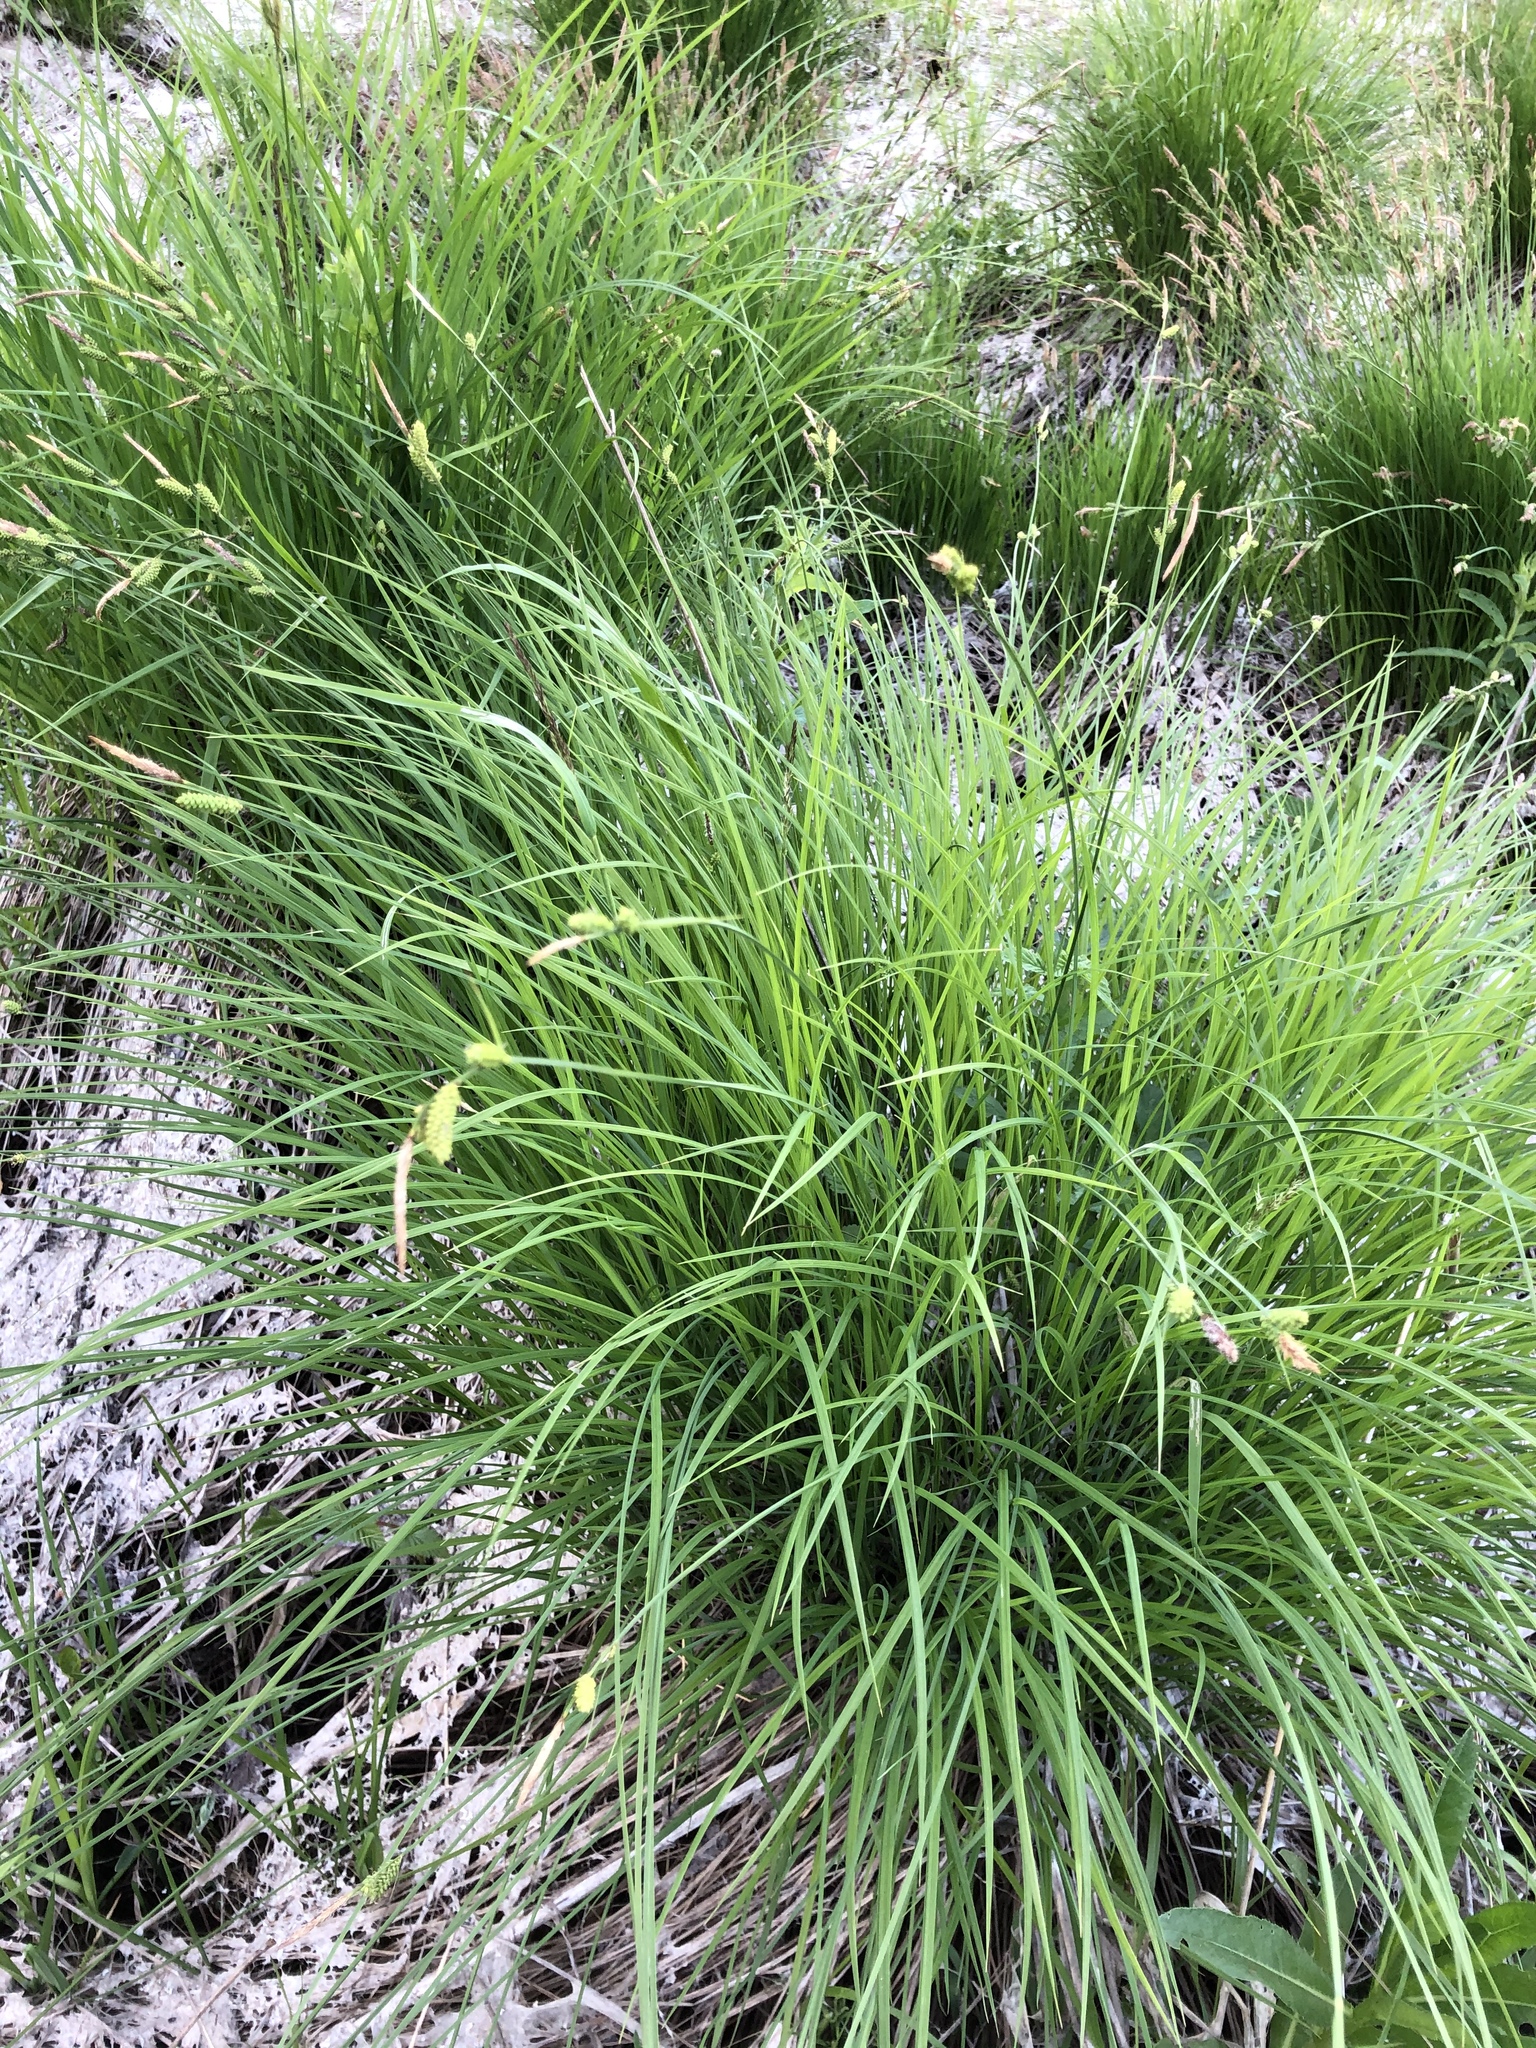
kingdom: Plantae
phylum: Tracheophyta
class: Liliopsida
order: Poales
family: Cyperaceae
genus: Carex
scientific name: Carex cespitosa
